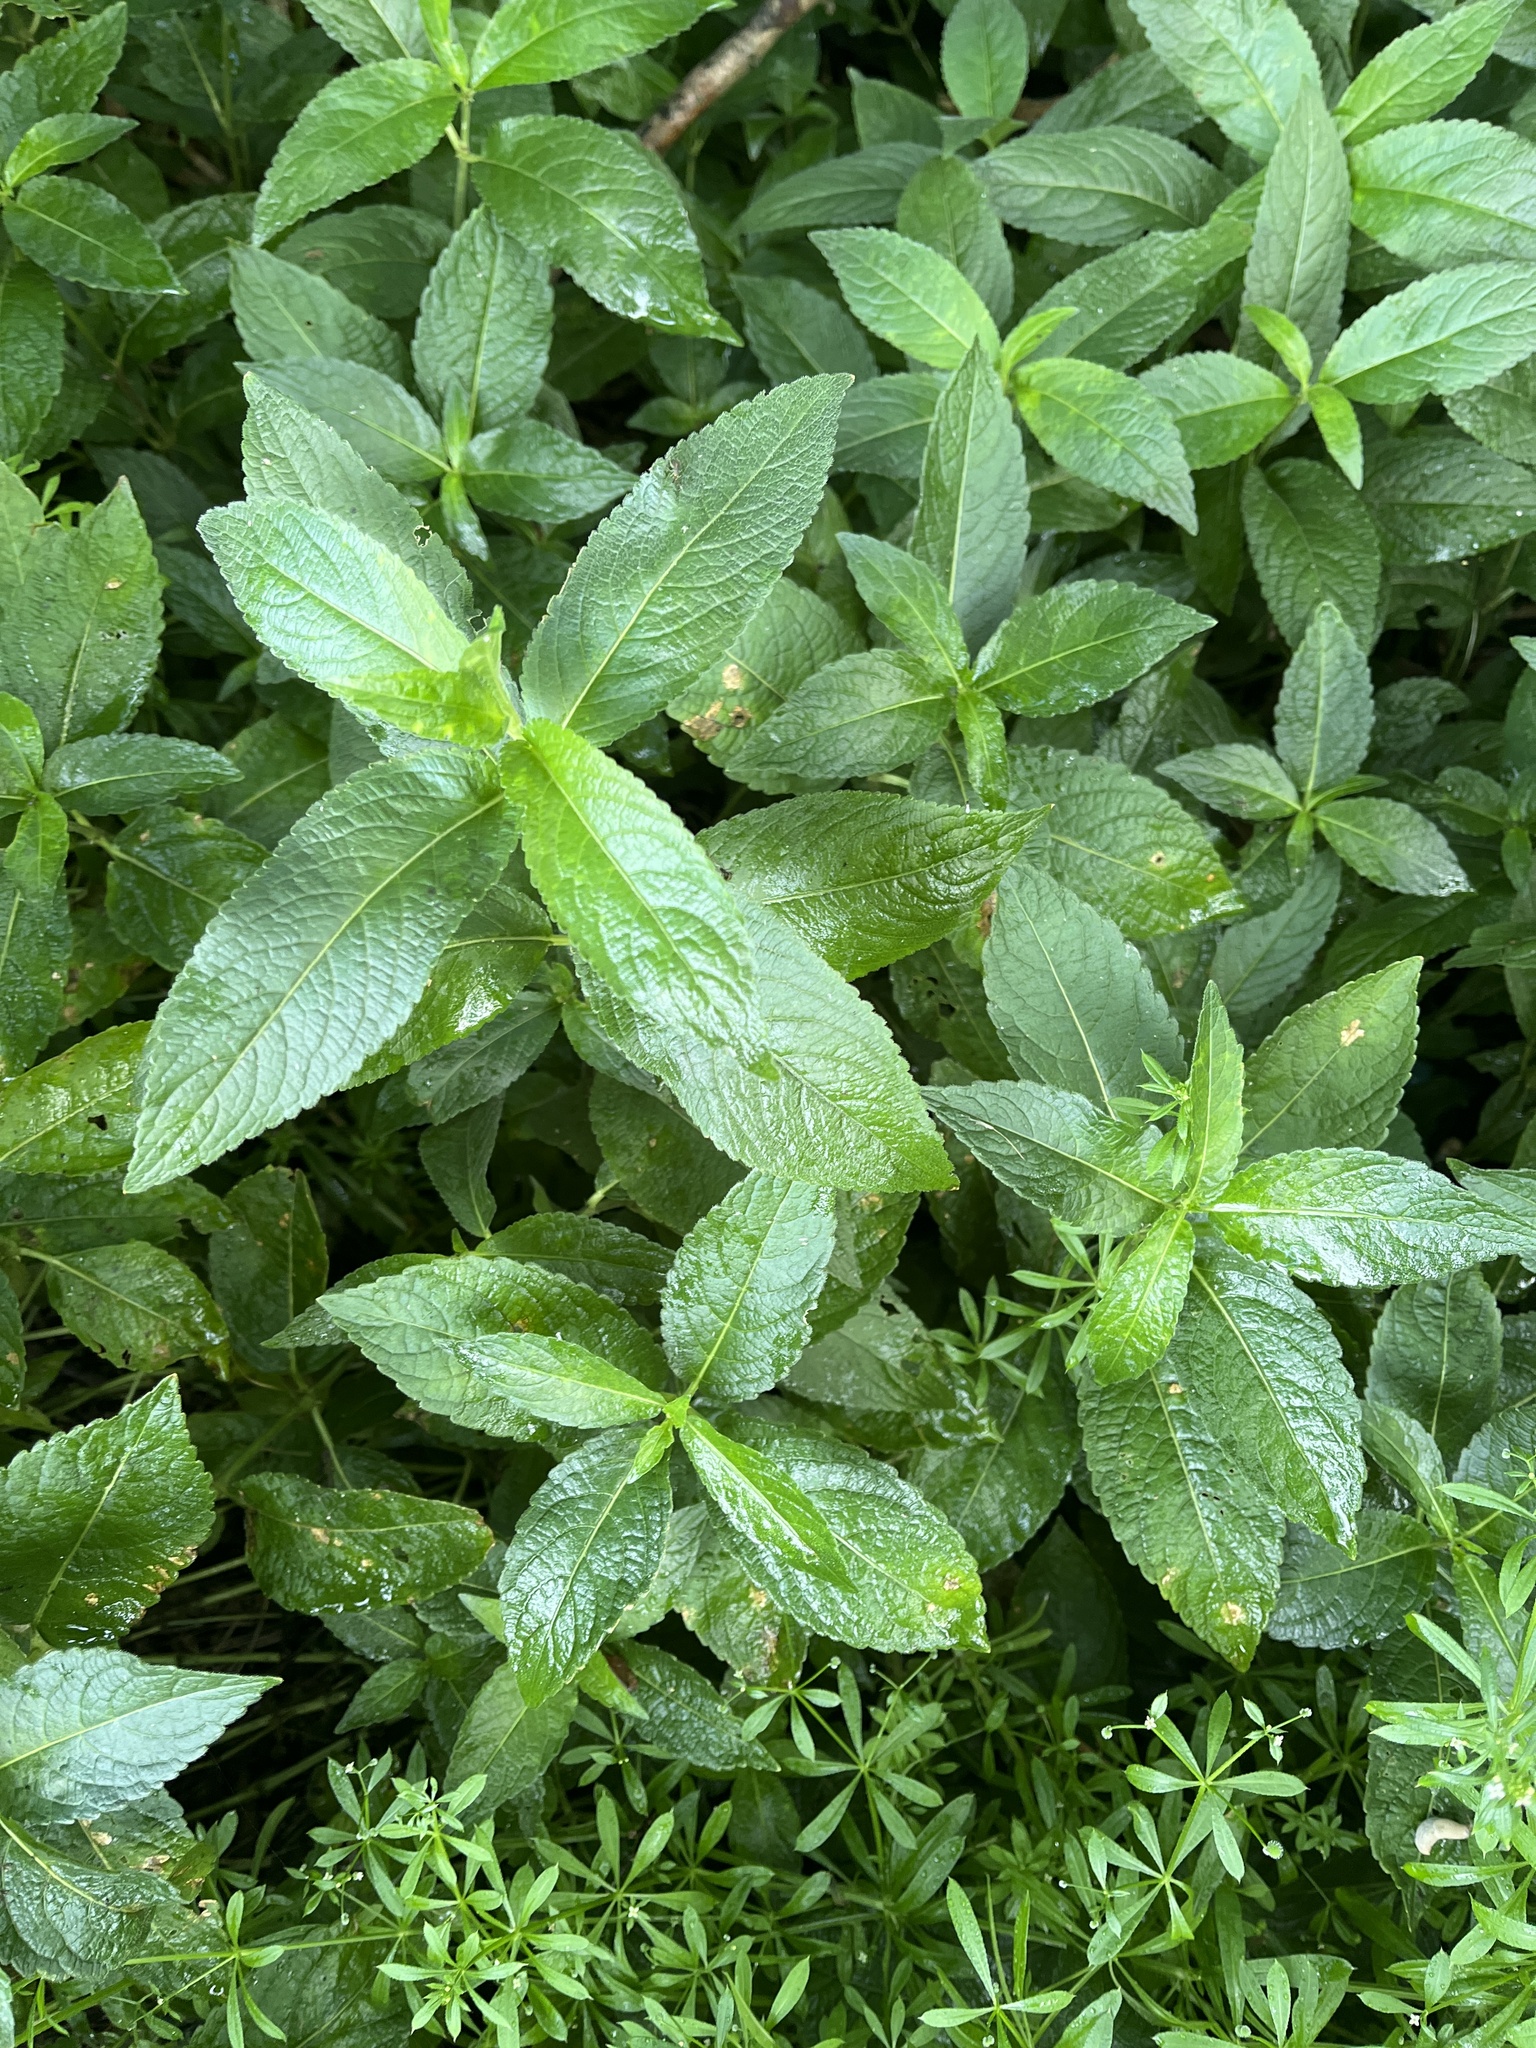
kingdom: Plantae
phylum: Tracheophyta
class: Magnoliopsida
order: Malpighiales
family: Euphorbiaceae
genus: Mercurialis
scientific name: Mercurialis perennis
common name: Dog mercury
